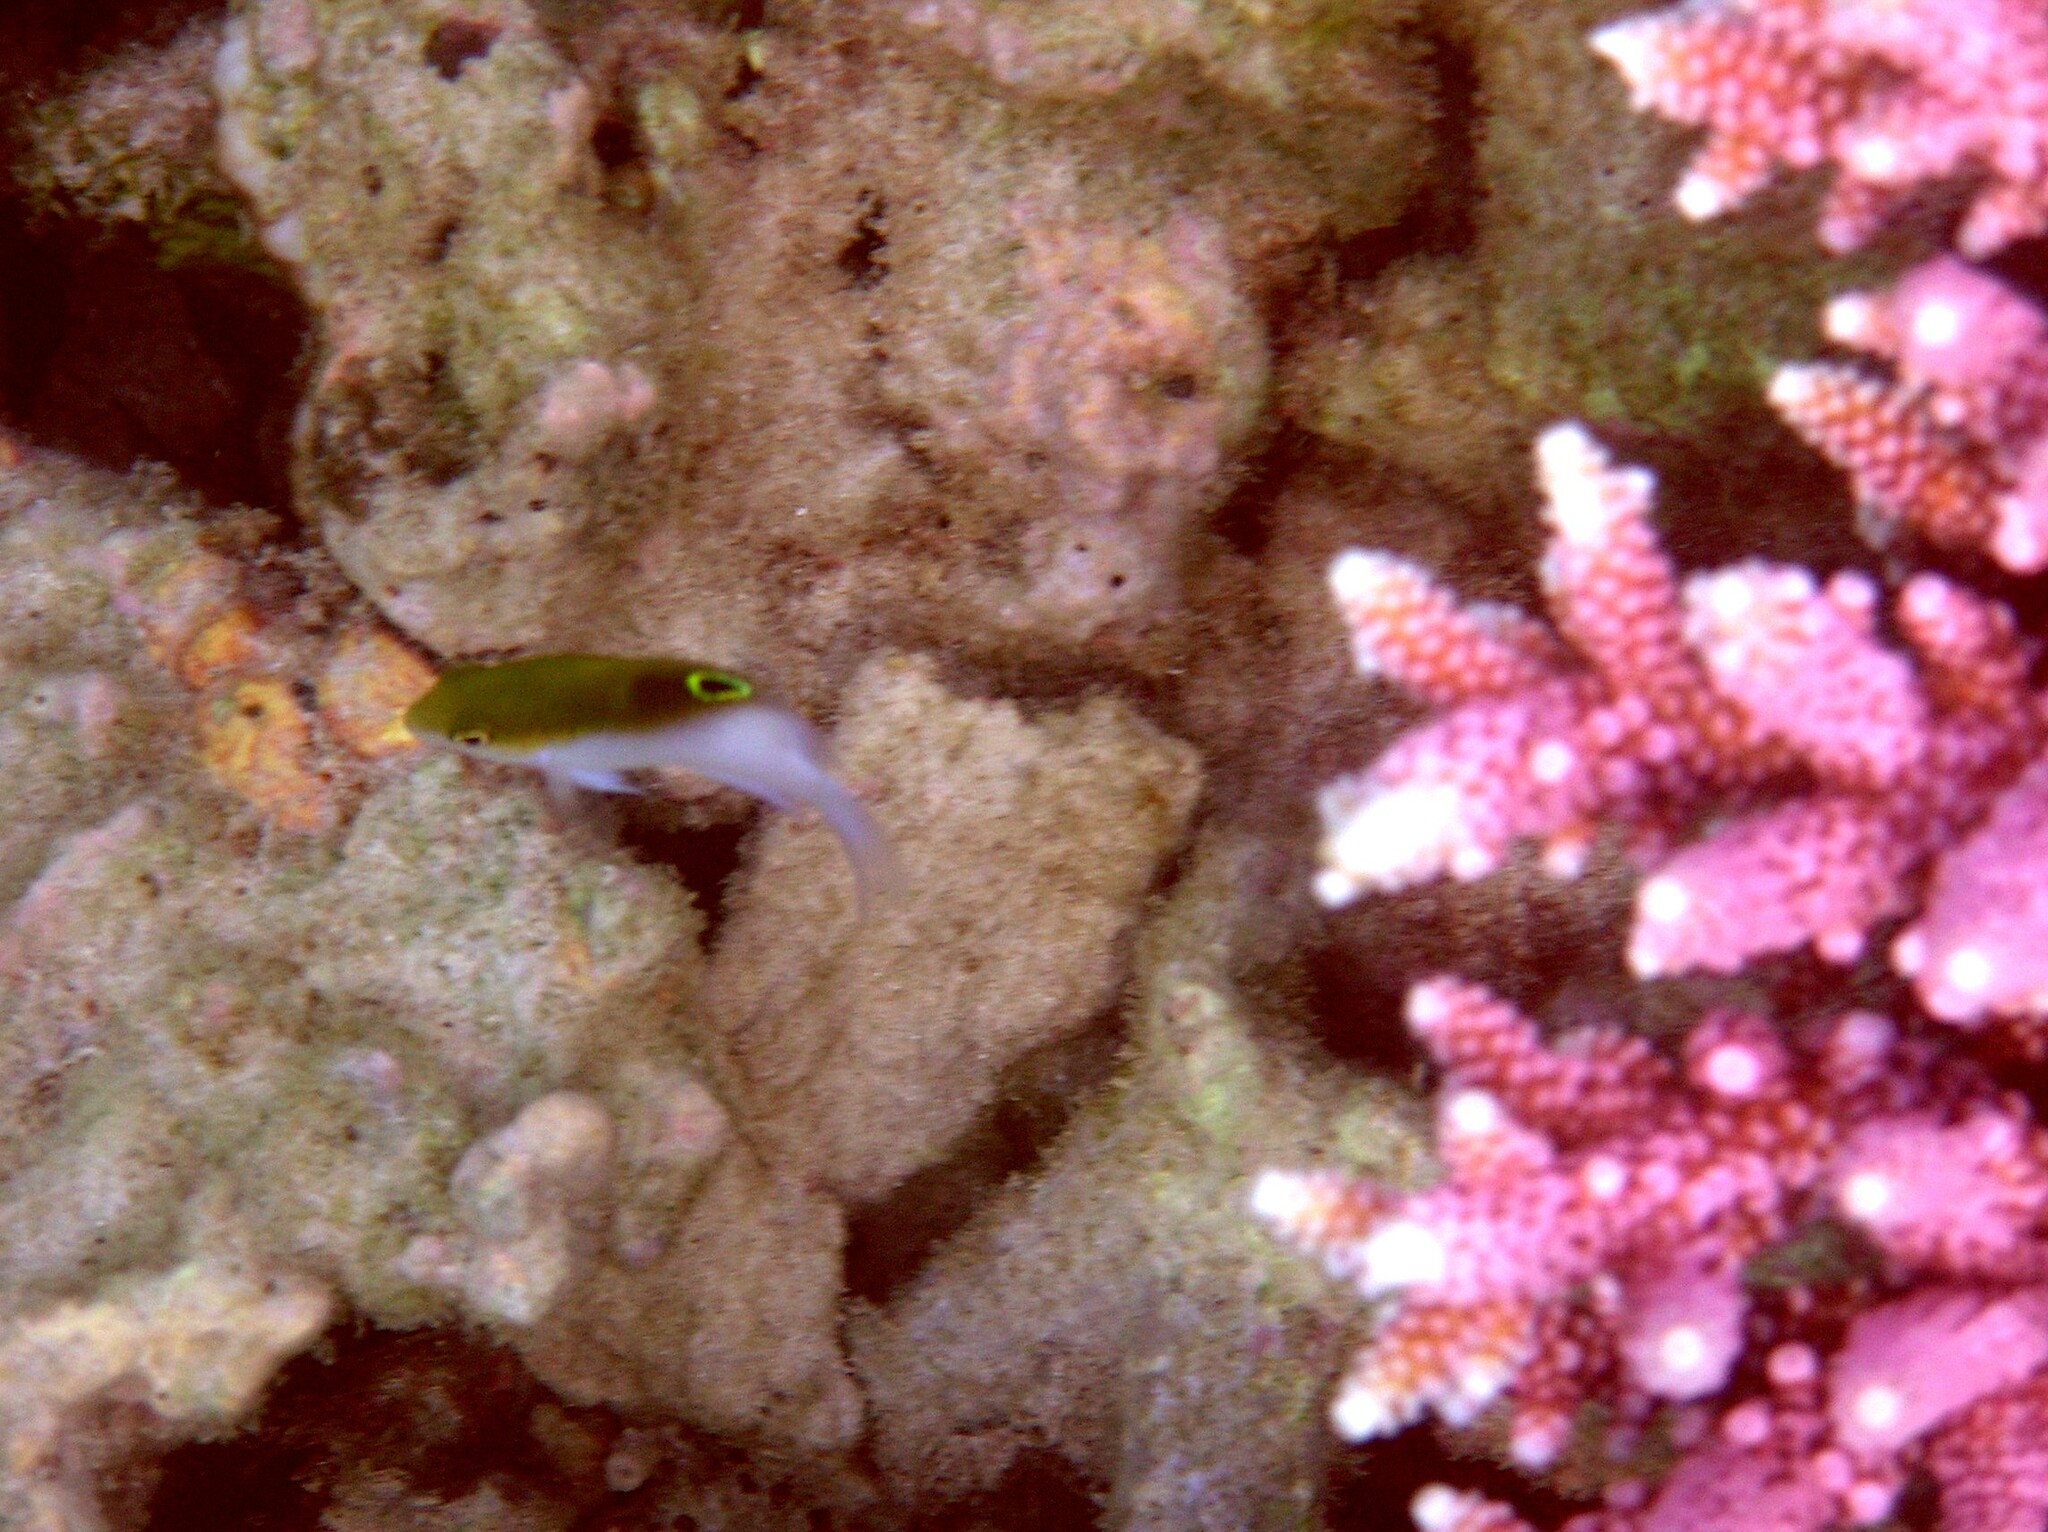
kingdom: Animalia
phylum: Chordata
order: Perciformes
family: Pomacentridae
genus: Dischistodus
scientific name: Dischistodus melanotus
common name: Black-vent damsel
